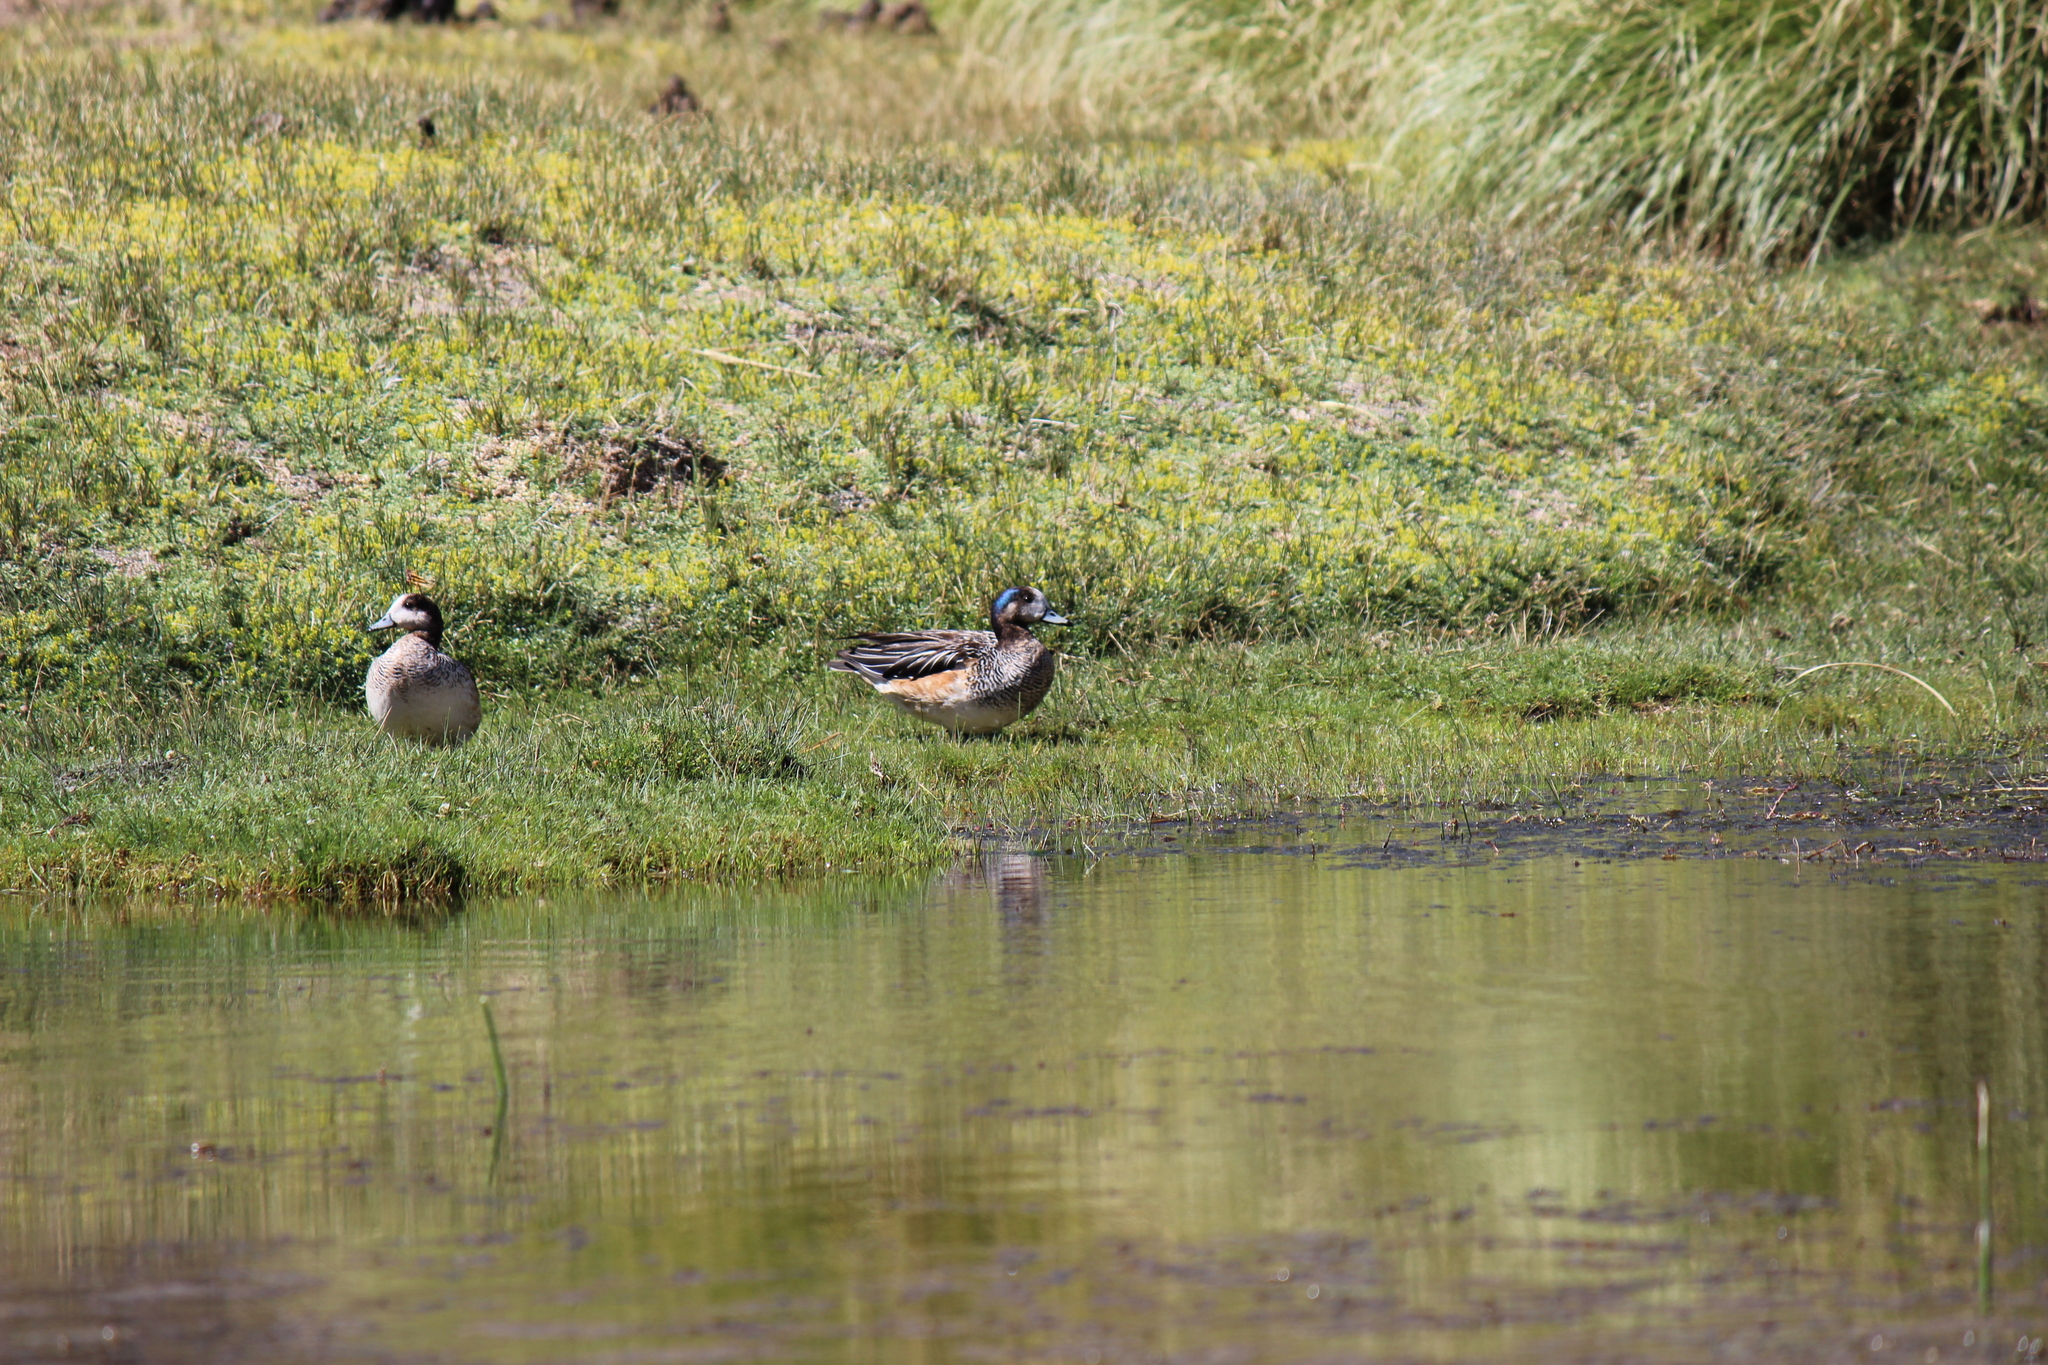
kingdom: Animalia
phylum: Chordata
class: Aves
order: Anseriformes
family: Anatidae
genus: Mareca
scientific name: Mareca sibilatrix
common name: Chiloe wigeon
